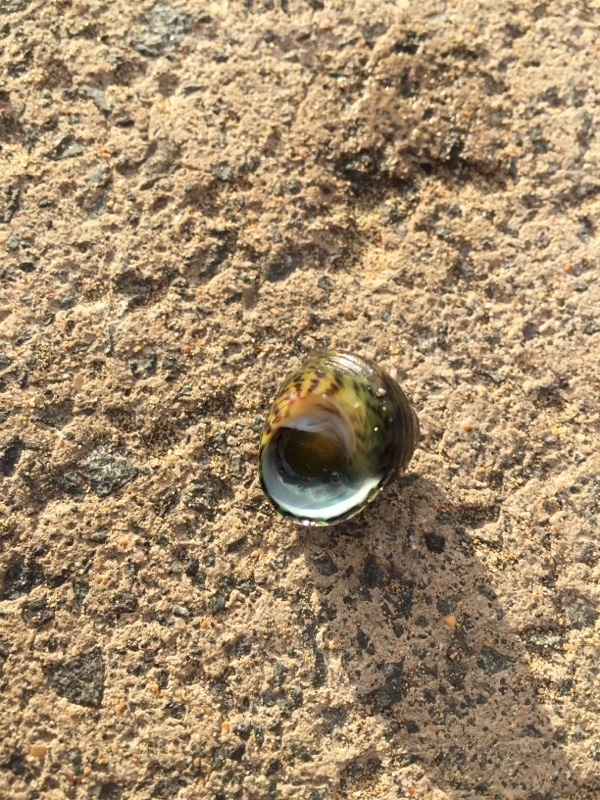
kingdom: Animalia
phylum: Mollusca
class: Gastropoda
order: Trochida
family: Trochidae
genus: Phorcus
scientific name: Phorcus sauciatus
